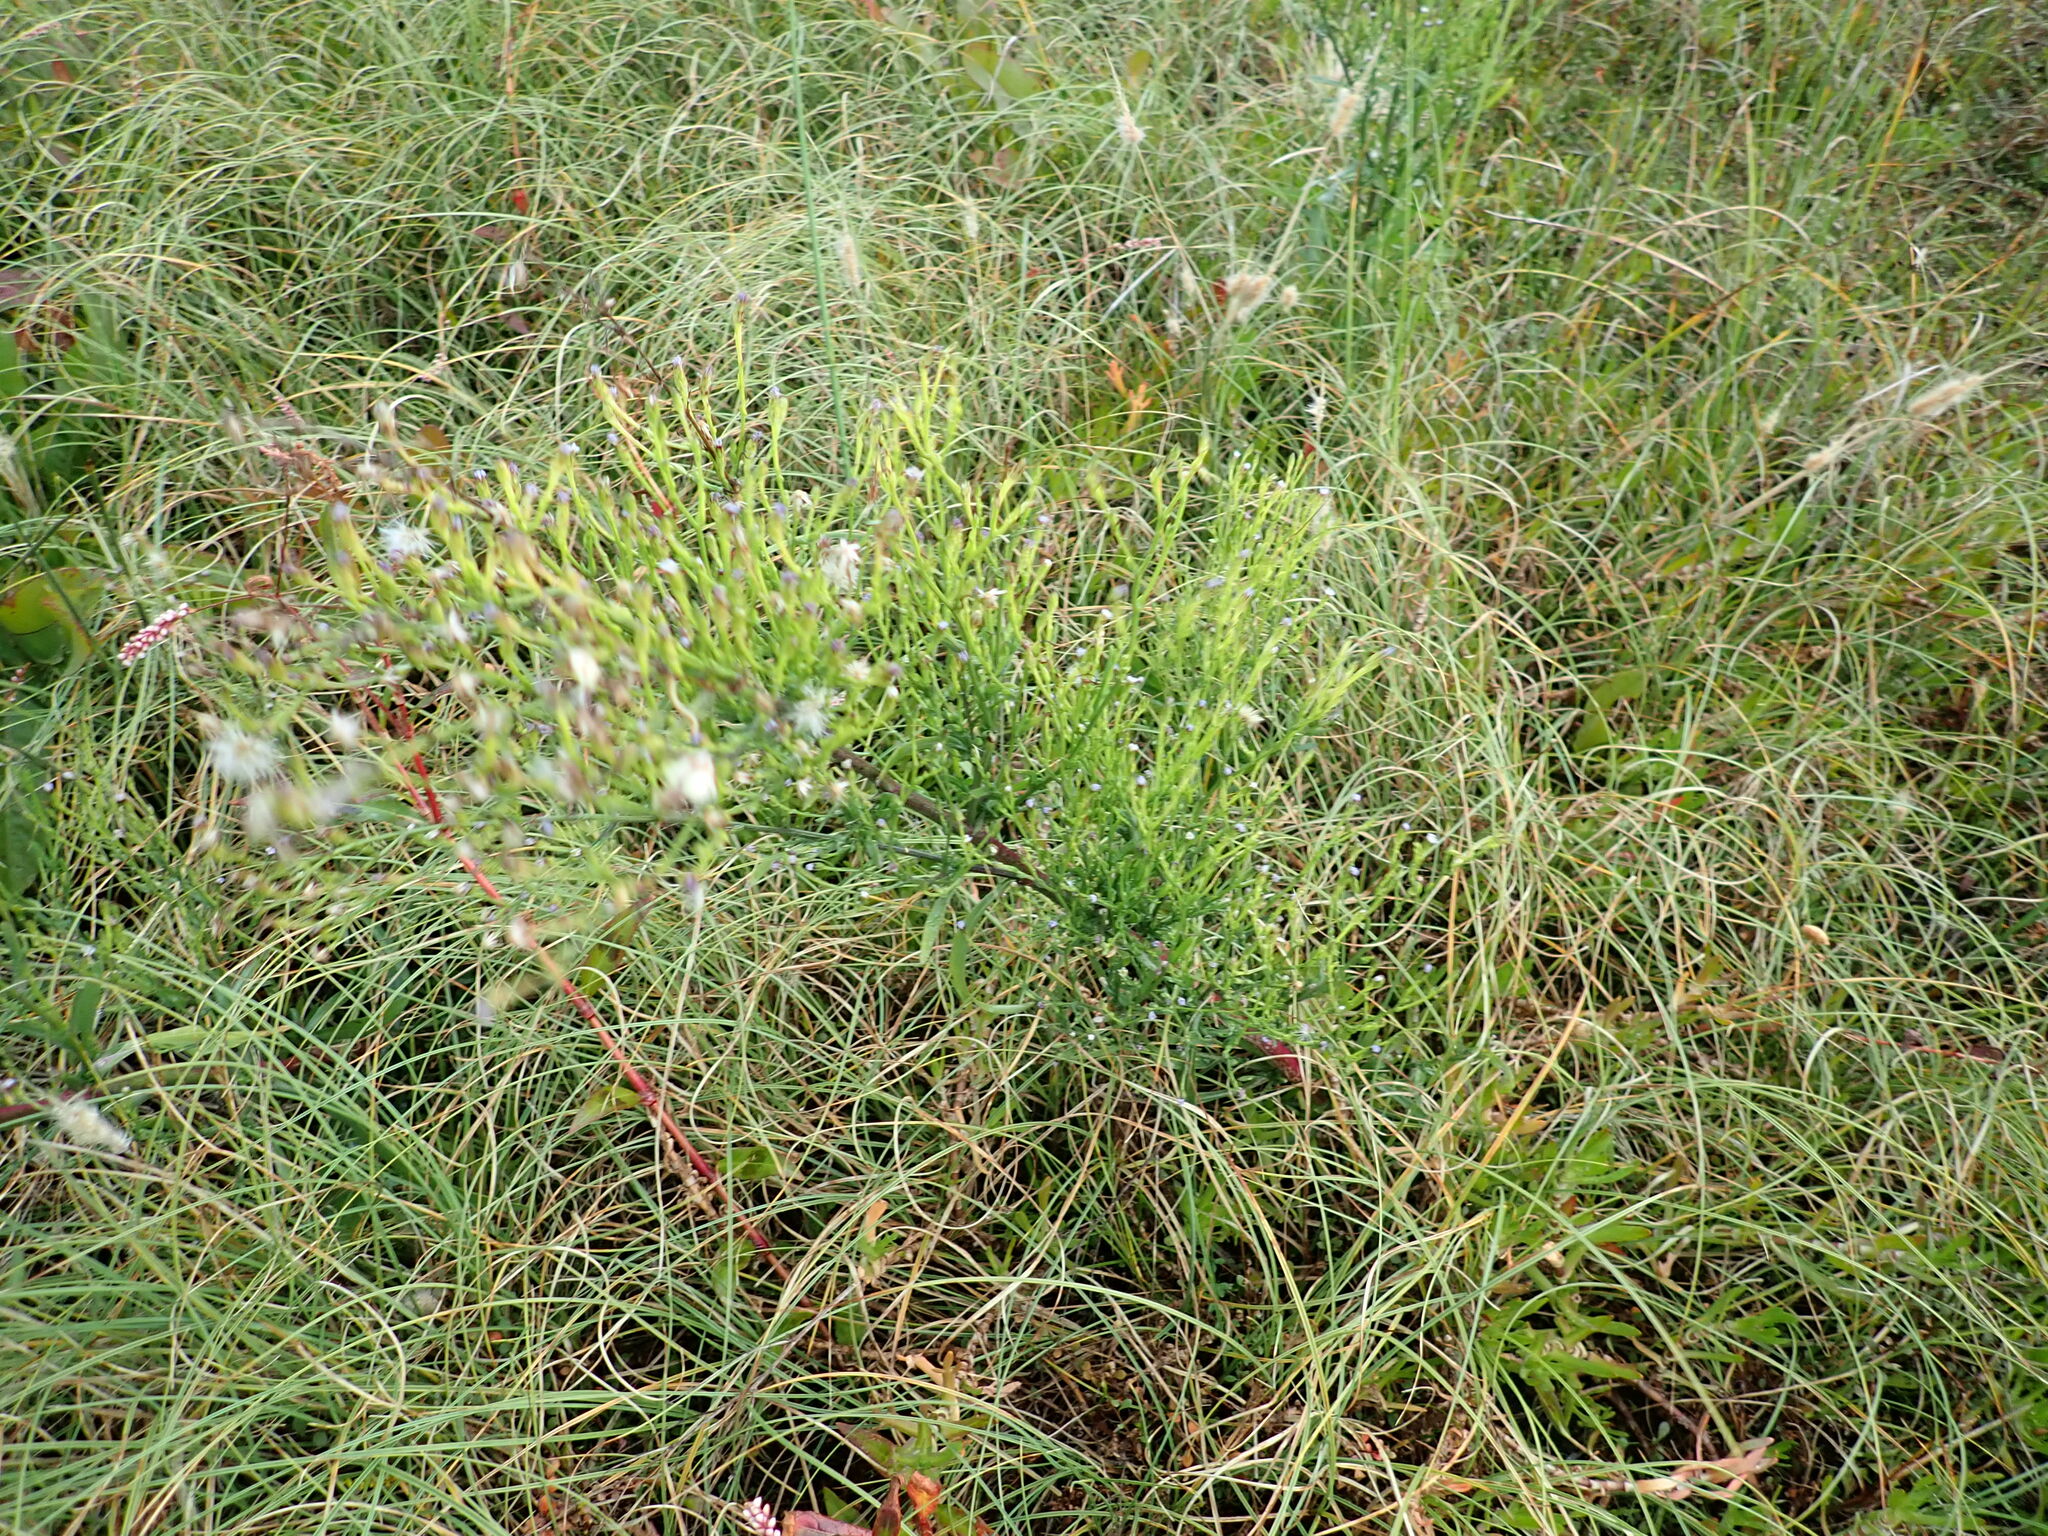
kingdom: Plantae
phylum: Tracheophyta
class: Magnoliopsida
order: Asterales
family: Asteraceae
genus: Symphyotrichum
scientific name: Symphyotrichum subulatum
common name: Annual saltmarsh aster
